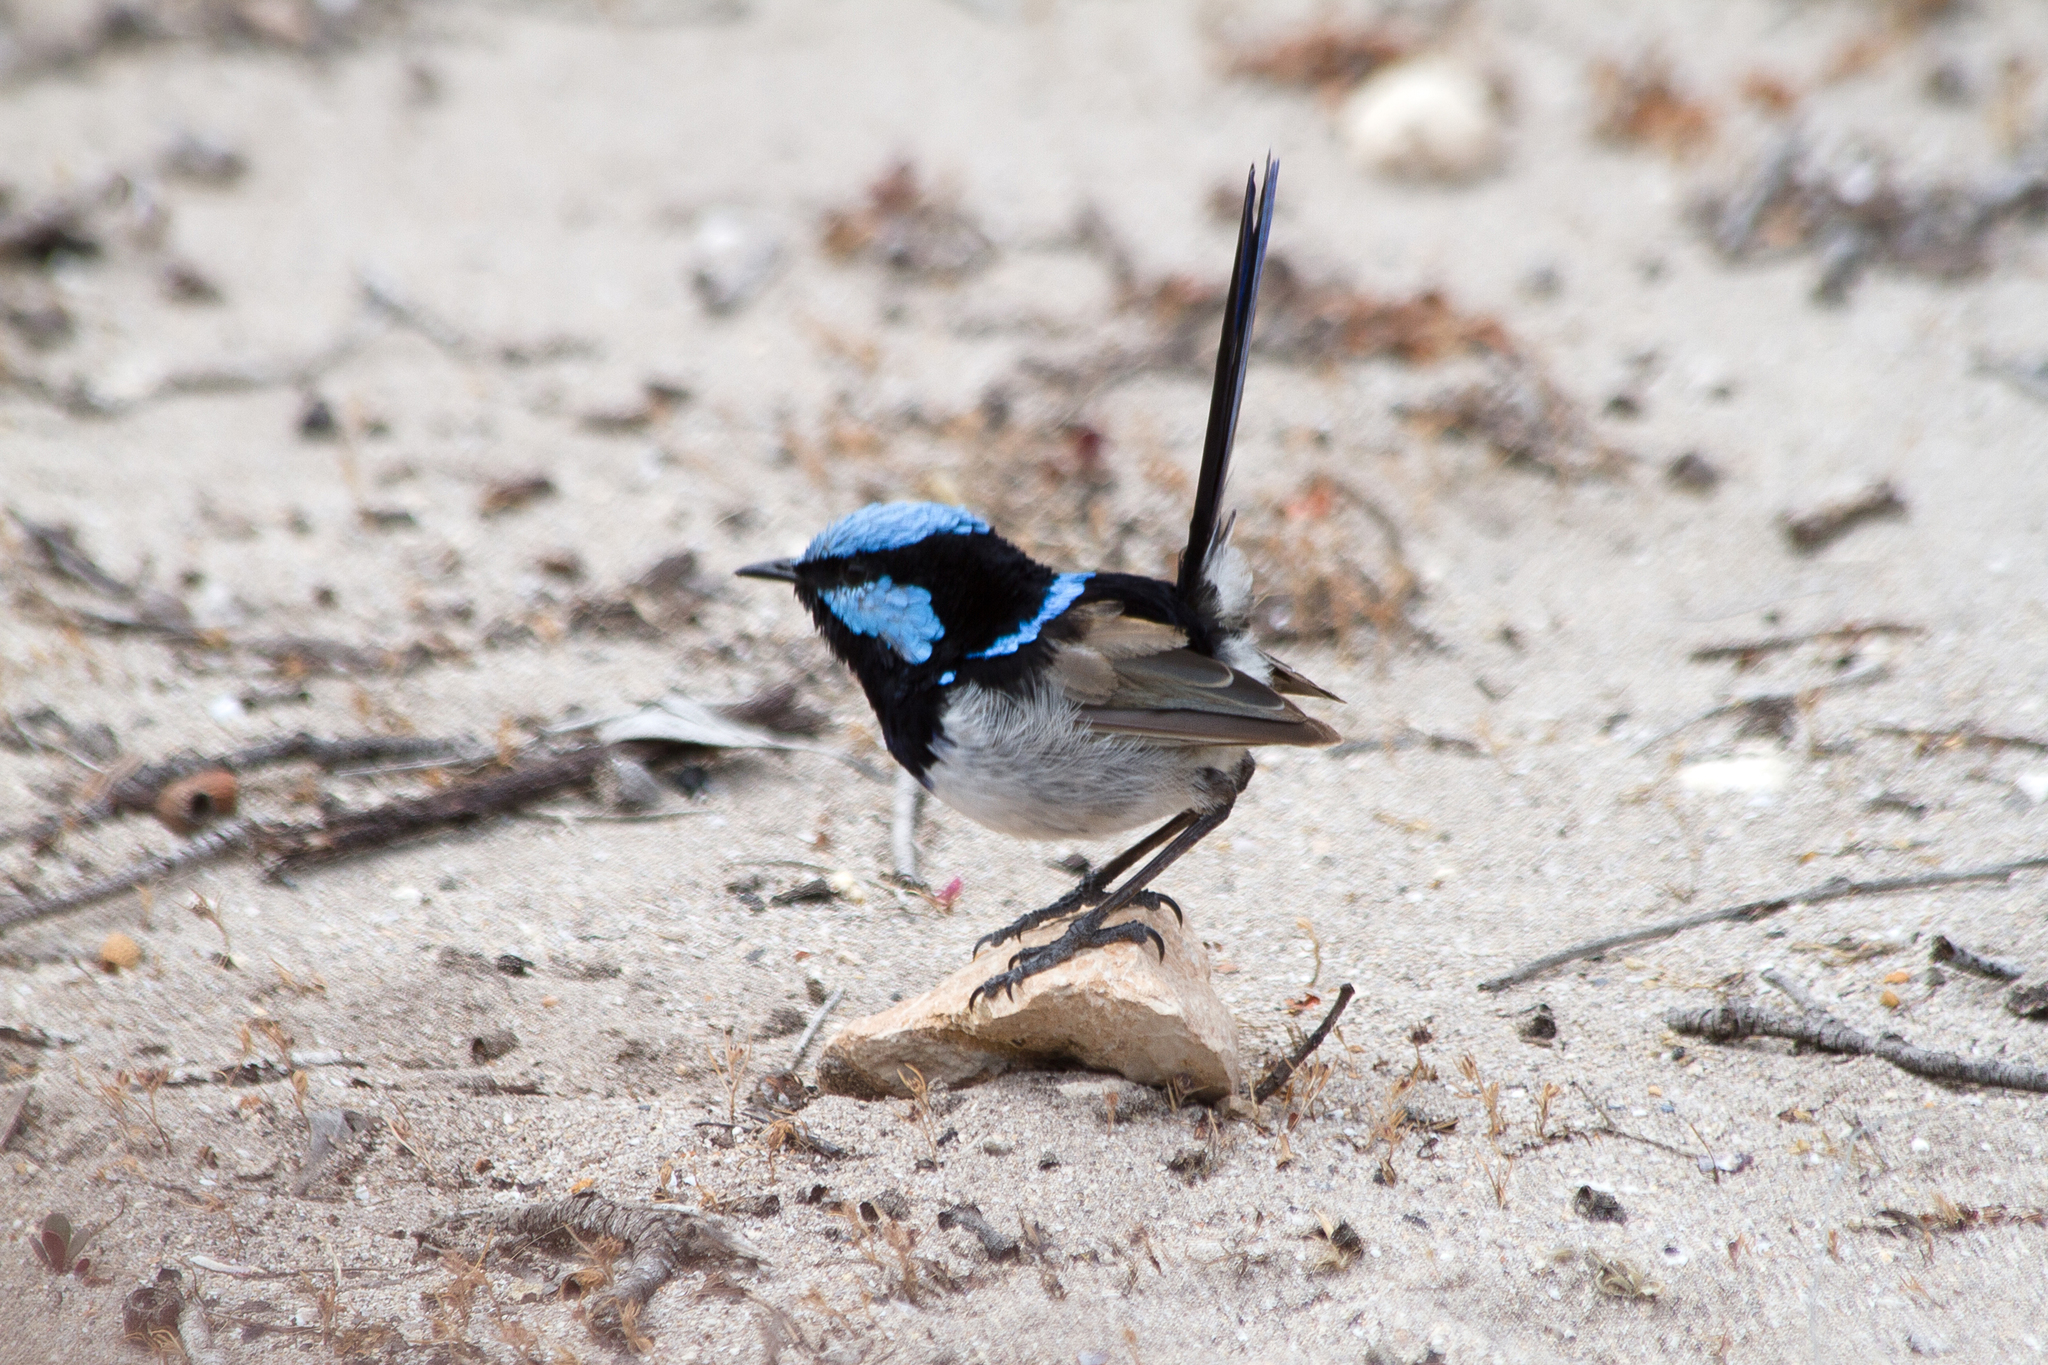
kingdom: Animalia
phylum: Chordata
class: Aves
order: Passeriformes
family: Maluridae
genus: Malurus
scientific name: Malurus cyaneus
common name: Superb fairywren
